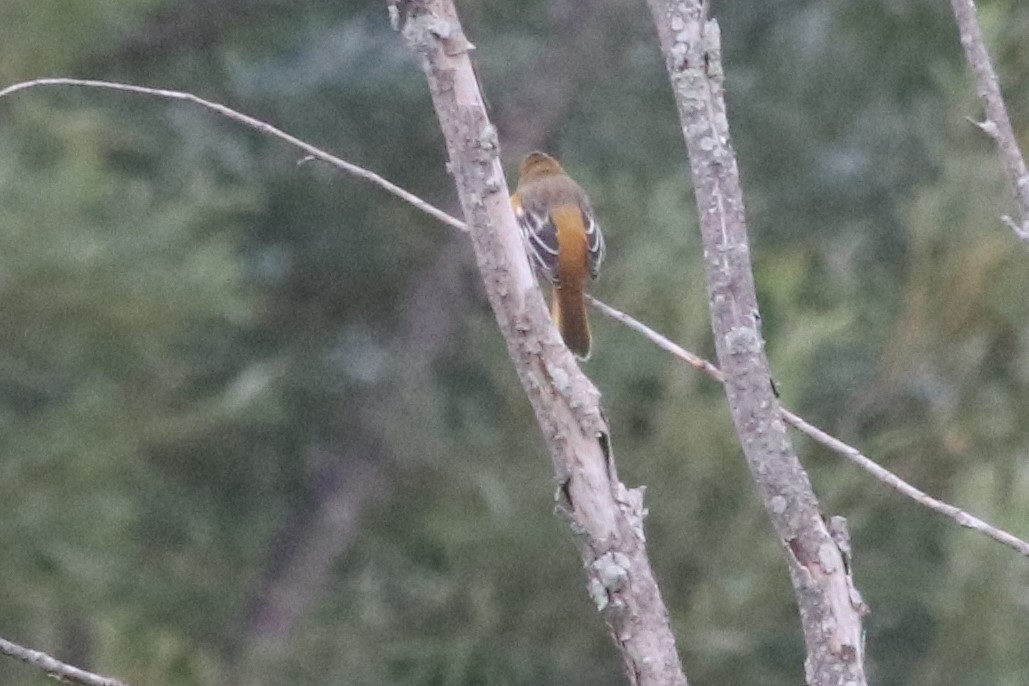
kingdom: Animalia
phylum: Chordata
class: Aves
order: Passeriformes
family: Icteridae
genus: Icterus
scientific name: Icterus galbula
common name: Baltimore oriole
